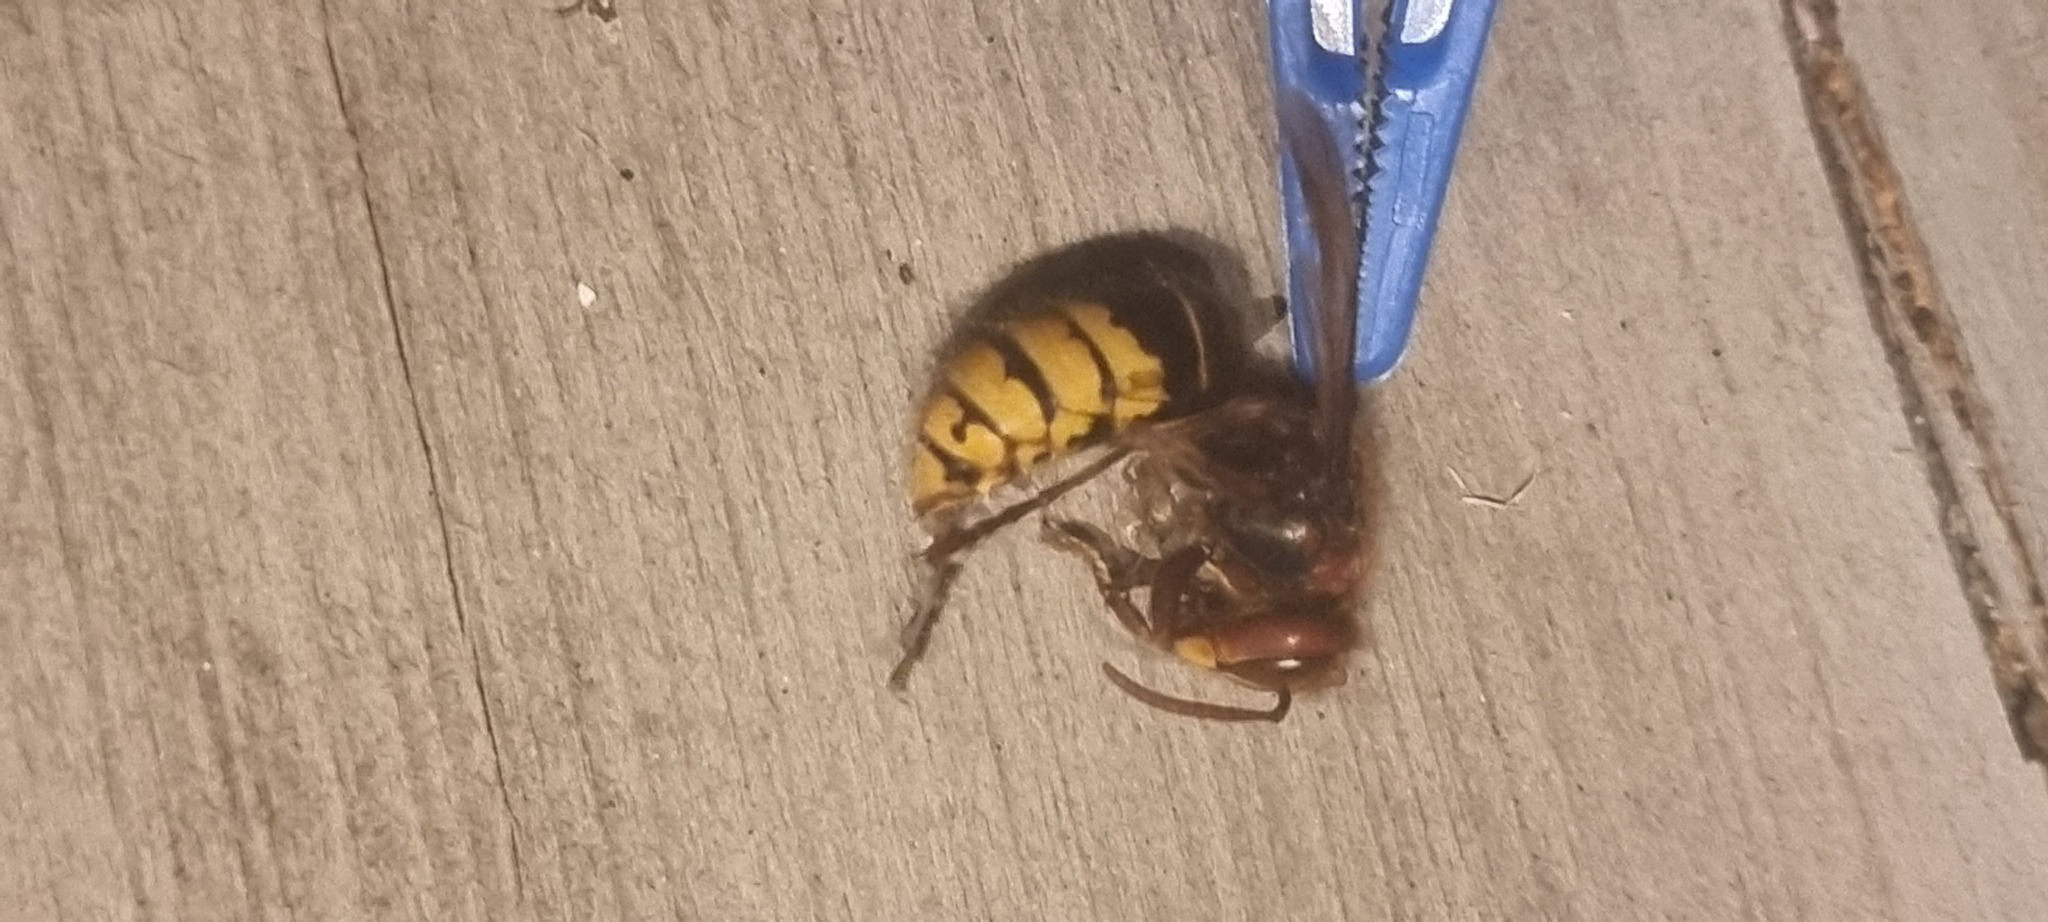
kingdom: Animalia
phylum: Arthropoda
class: Insecta
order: Hymenoptera
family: Vespidae
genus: Vespa
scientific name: Vespa crabro
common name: Hornet
